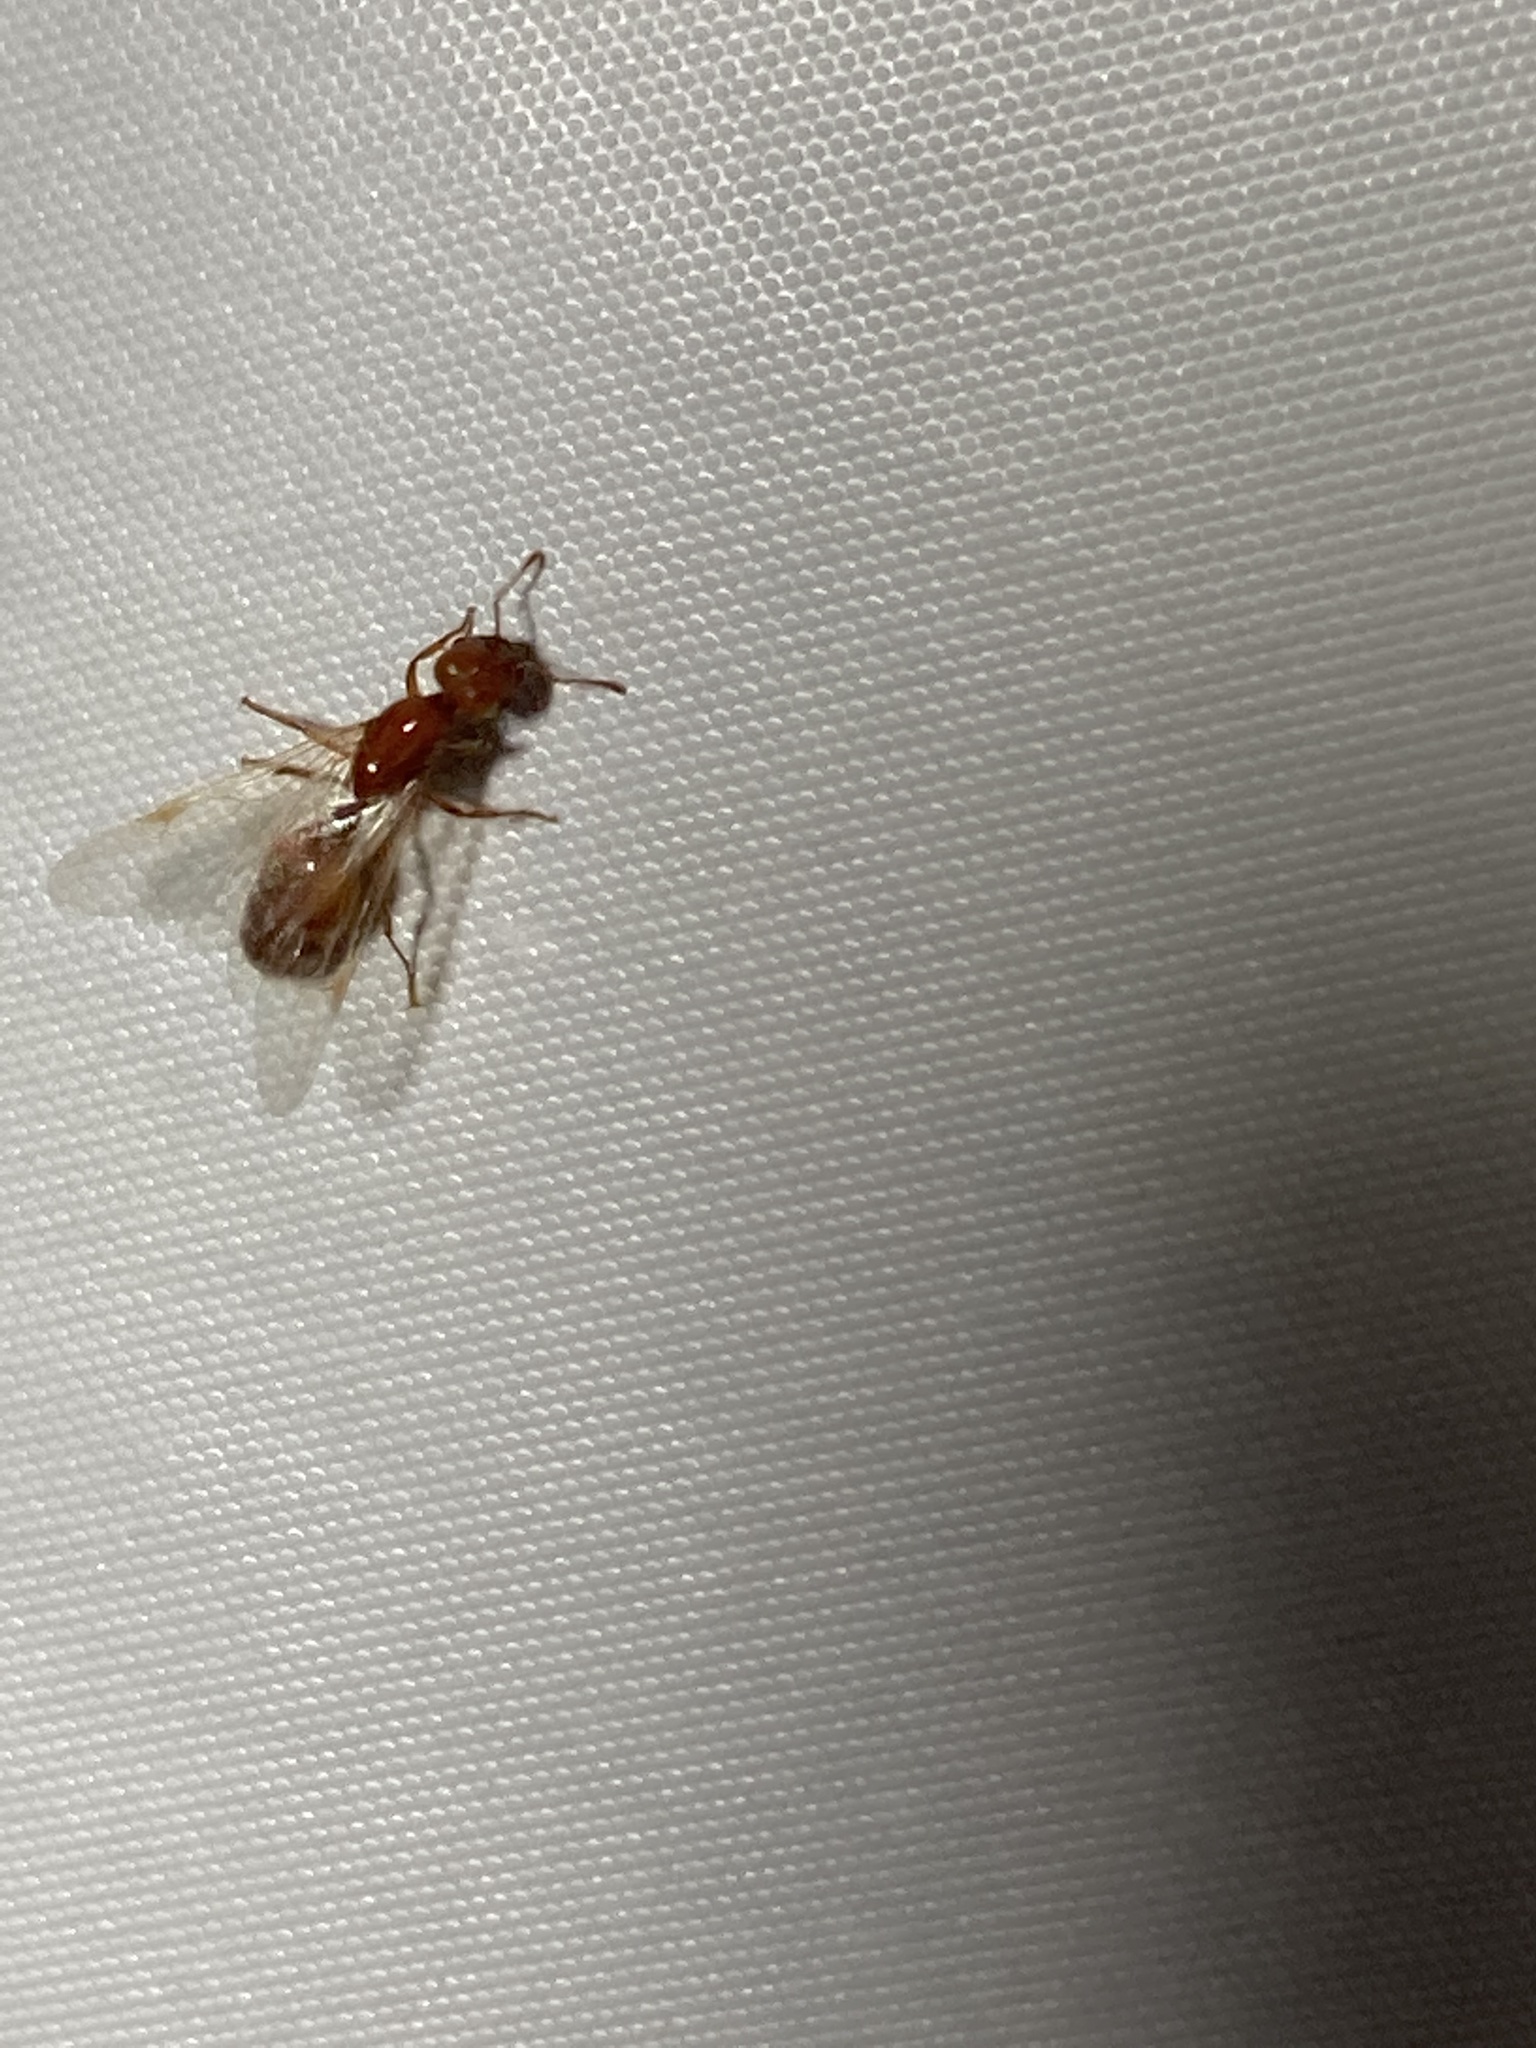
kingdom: Animalia
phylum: Arthropoda
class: Insecta
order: Hymenoptera
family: Formicidae
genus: Solenopsis
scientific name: Solenopsis geminata
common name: Tropical fire ant
